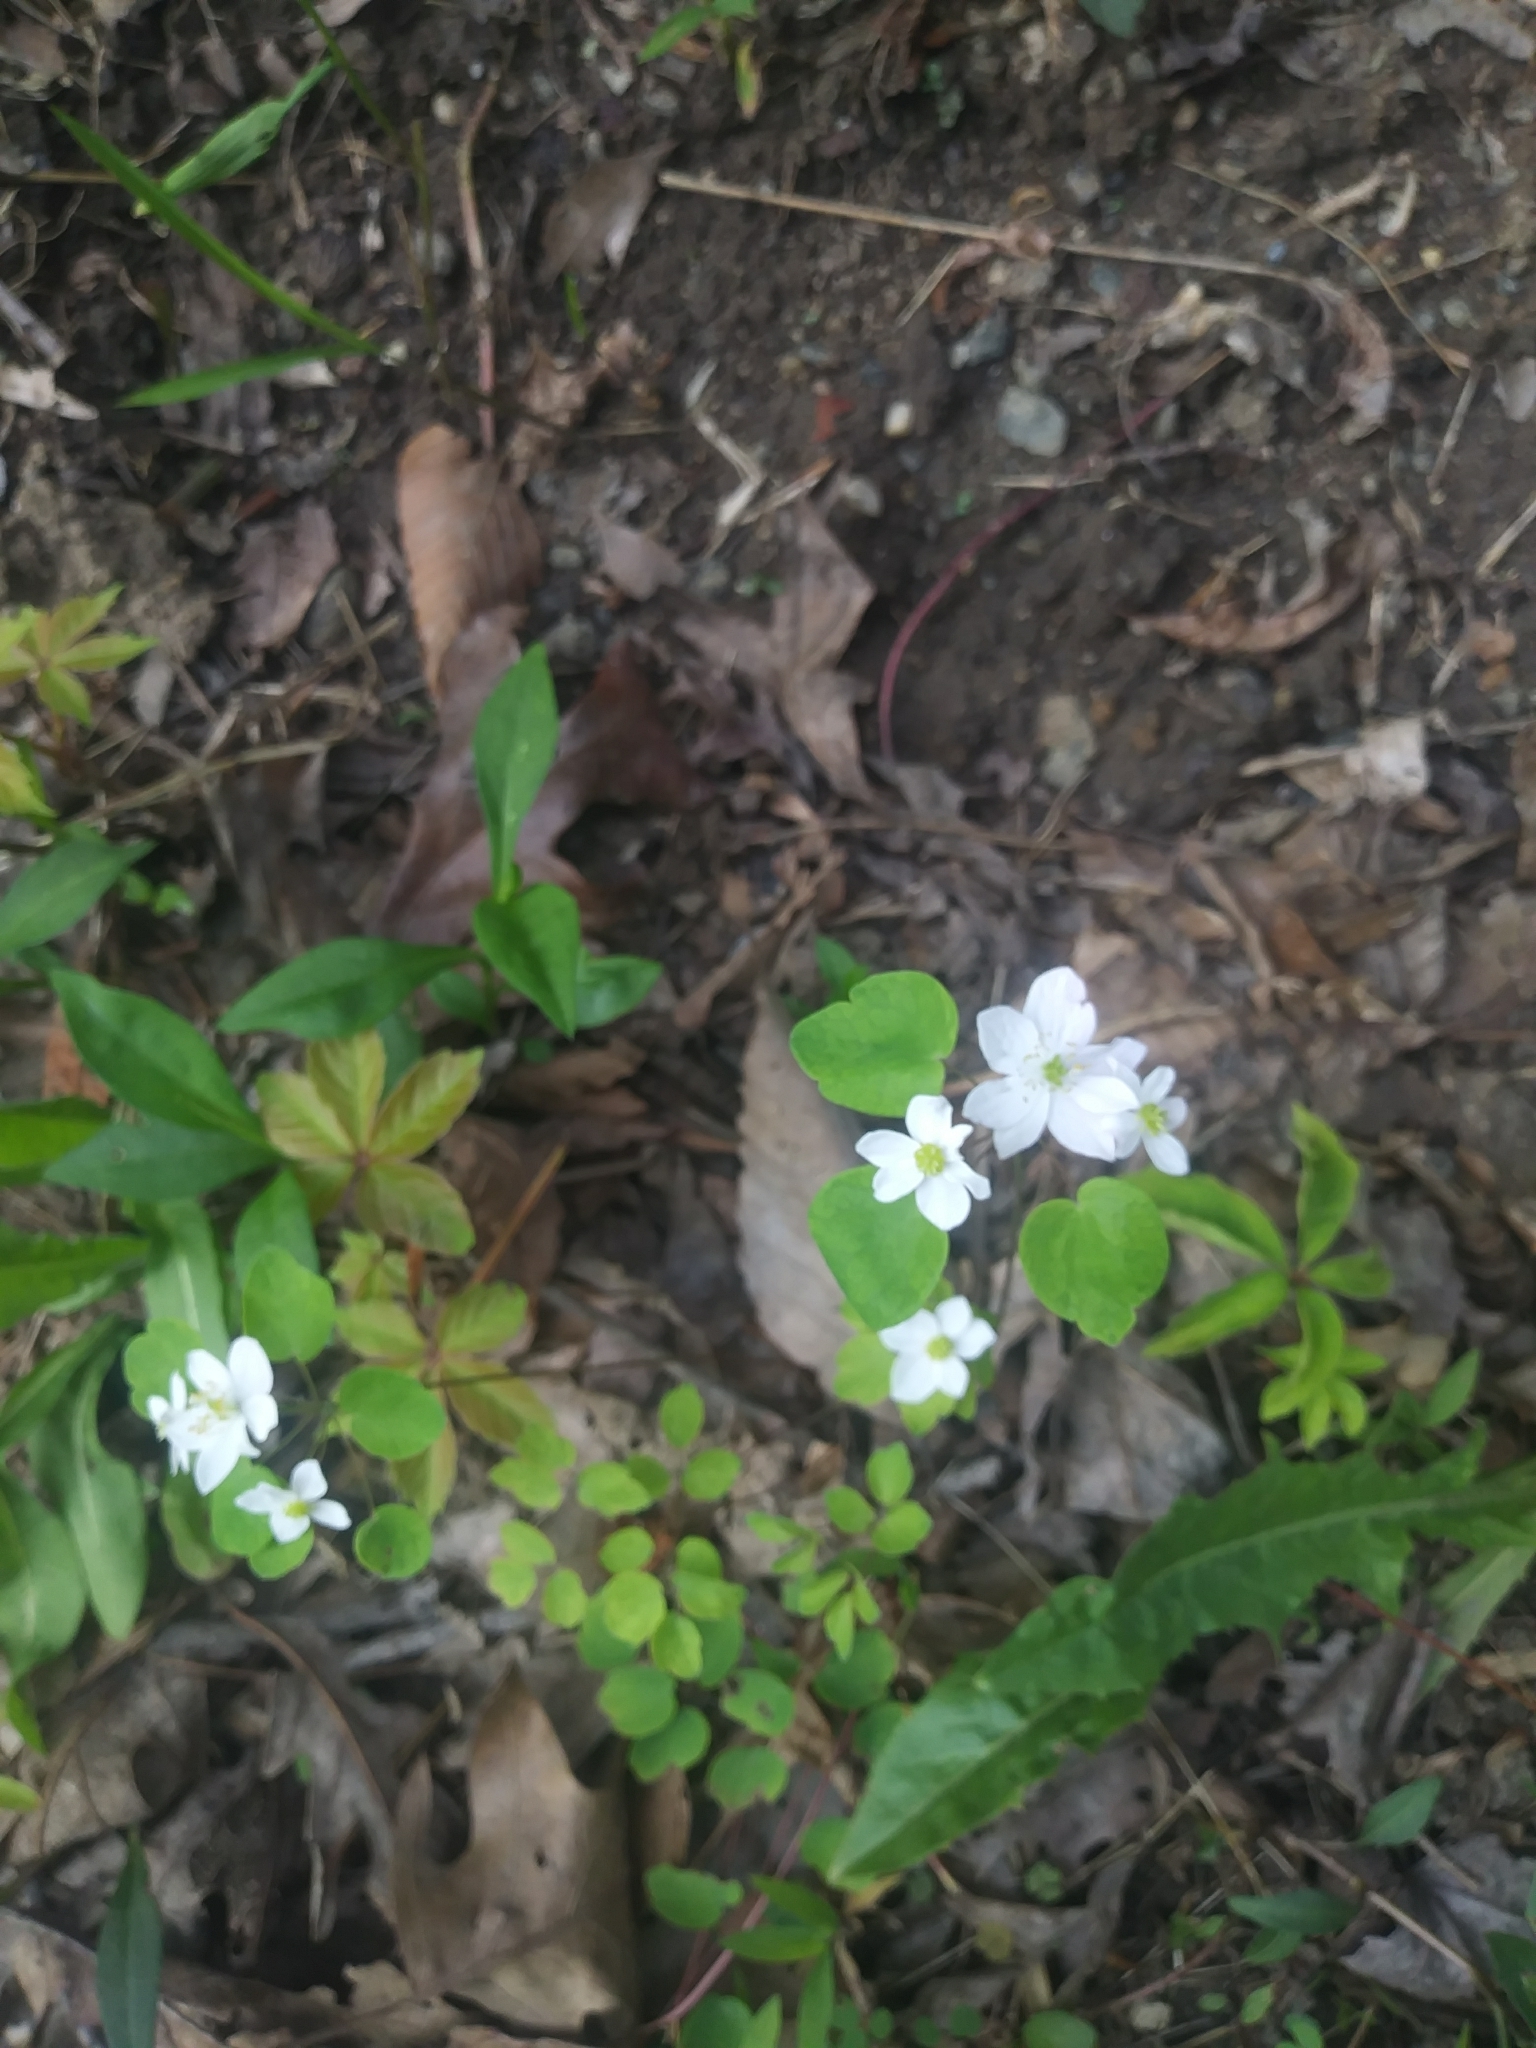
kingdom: Plantae
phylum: Tracheophyta
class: Magnoliopsida
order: Ranunculales
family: Ranunculaceae
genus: Thalictrum
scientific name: Thalictrum thalictroides
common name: Rue-anemone
